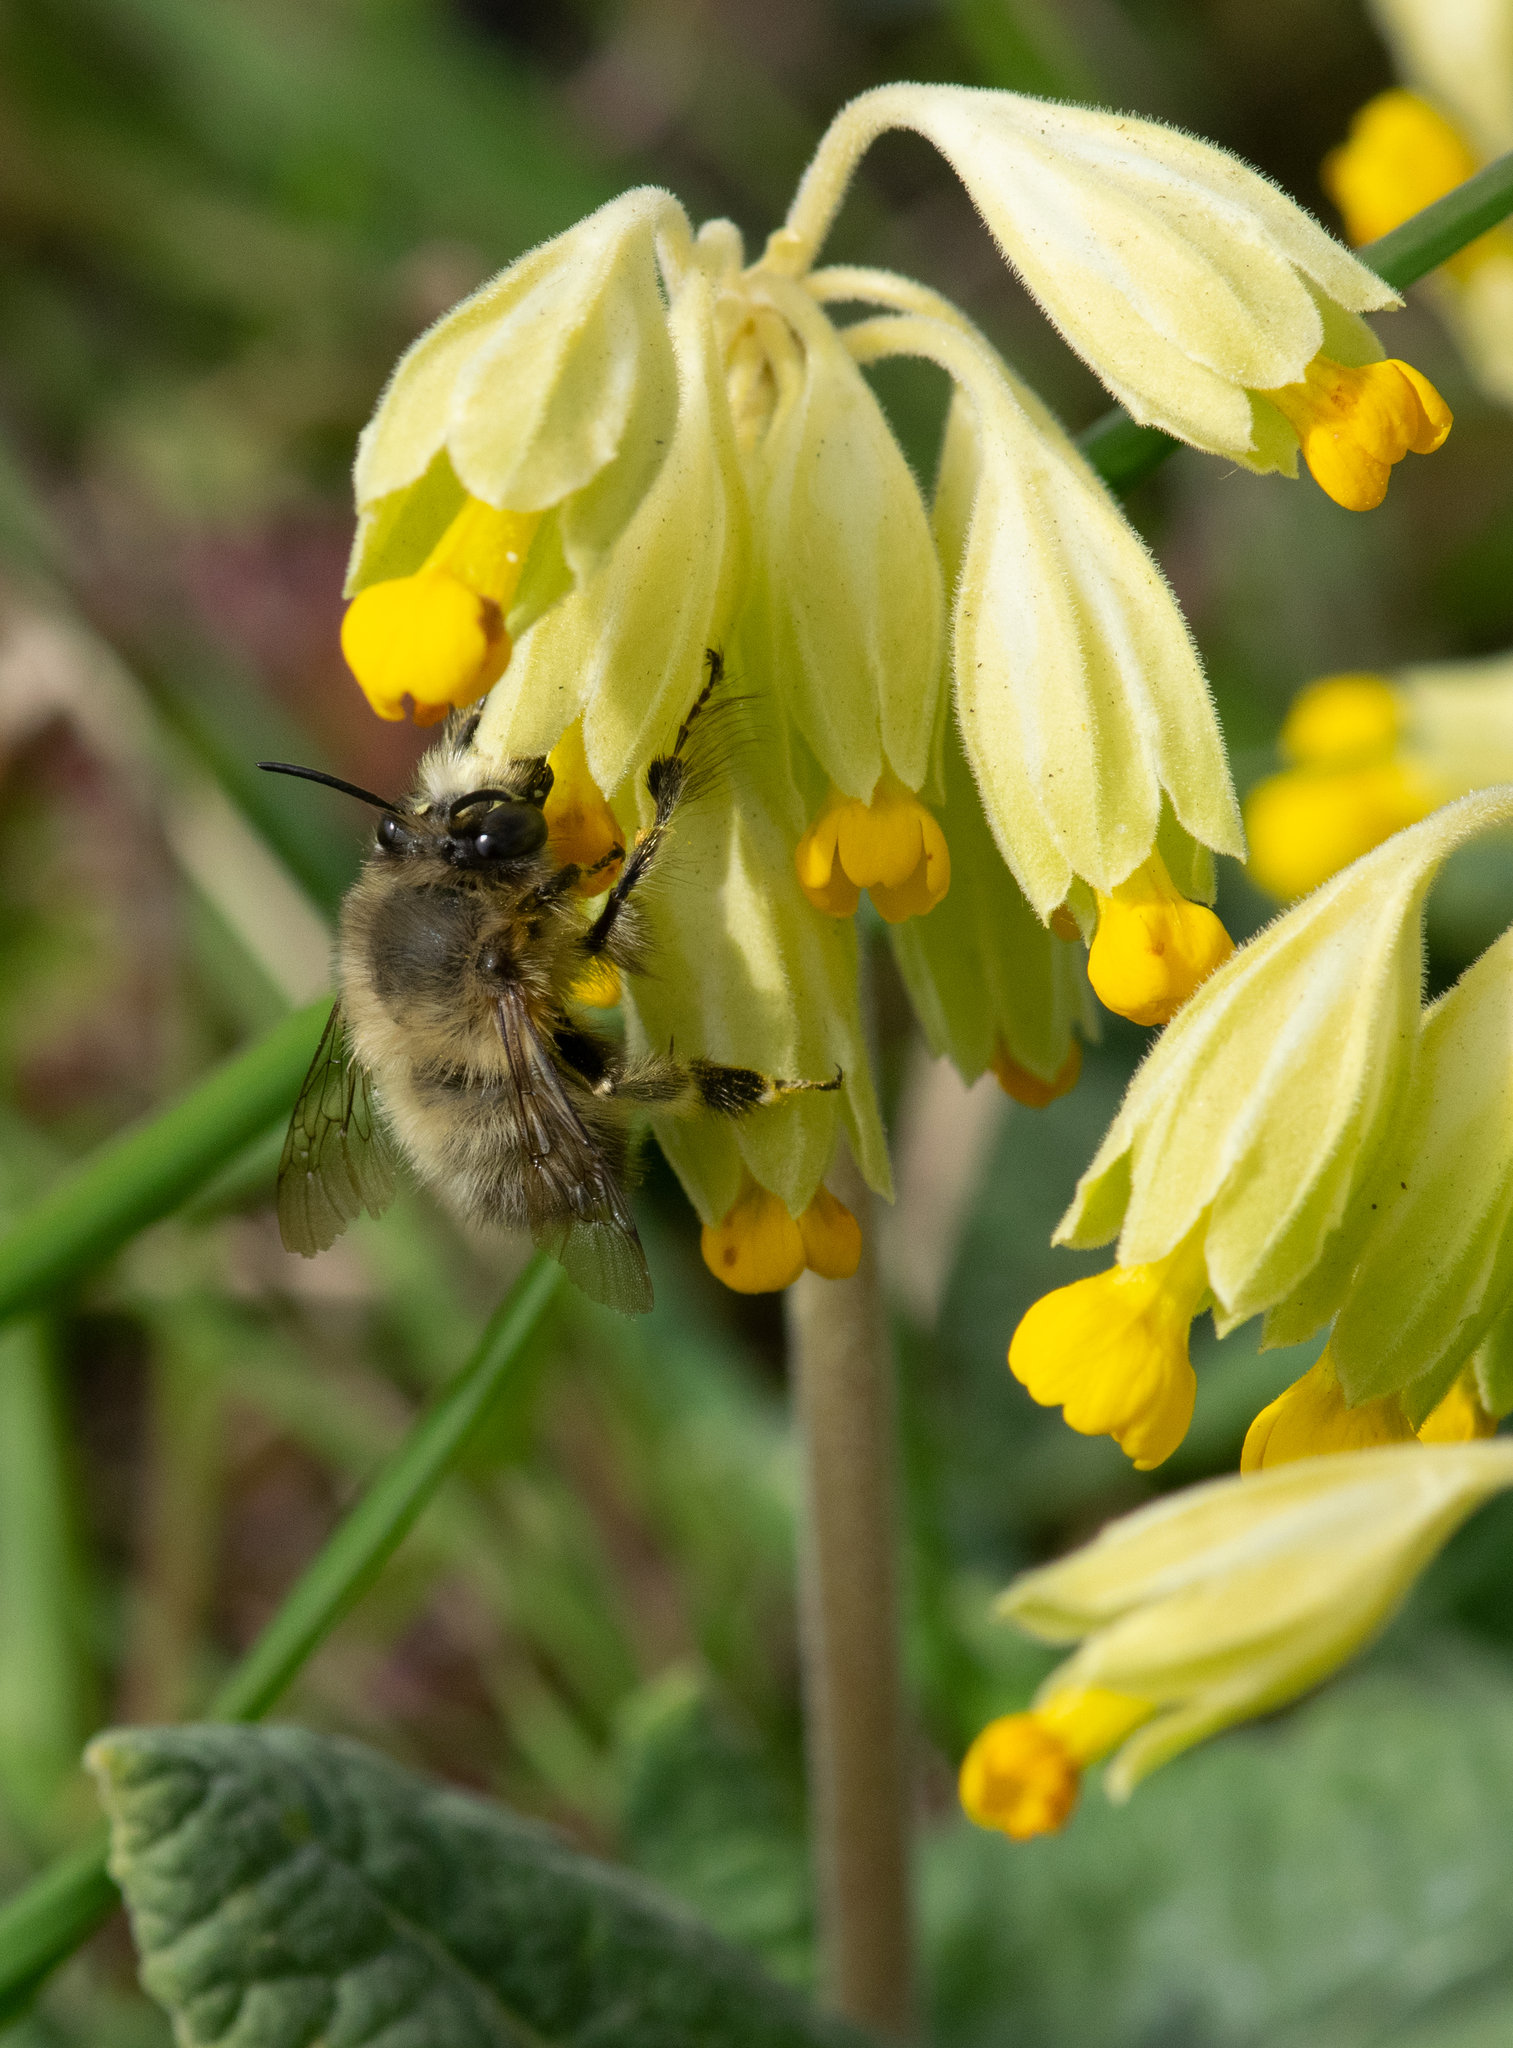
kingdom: Animalia
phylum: Arthropoda
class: Insecta
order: Hymenoptera
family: Apidae
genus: Anthophora
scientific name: Anthophora plumipes
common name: Hairy-footed flower bee
